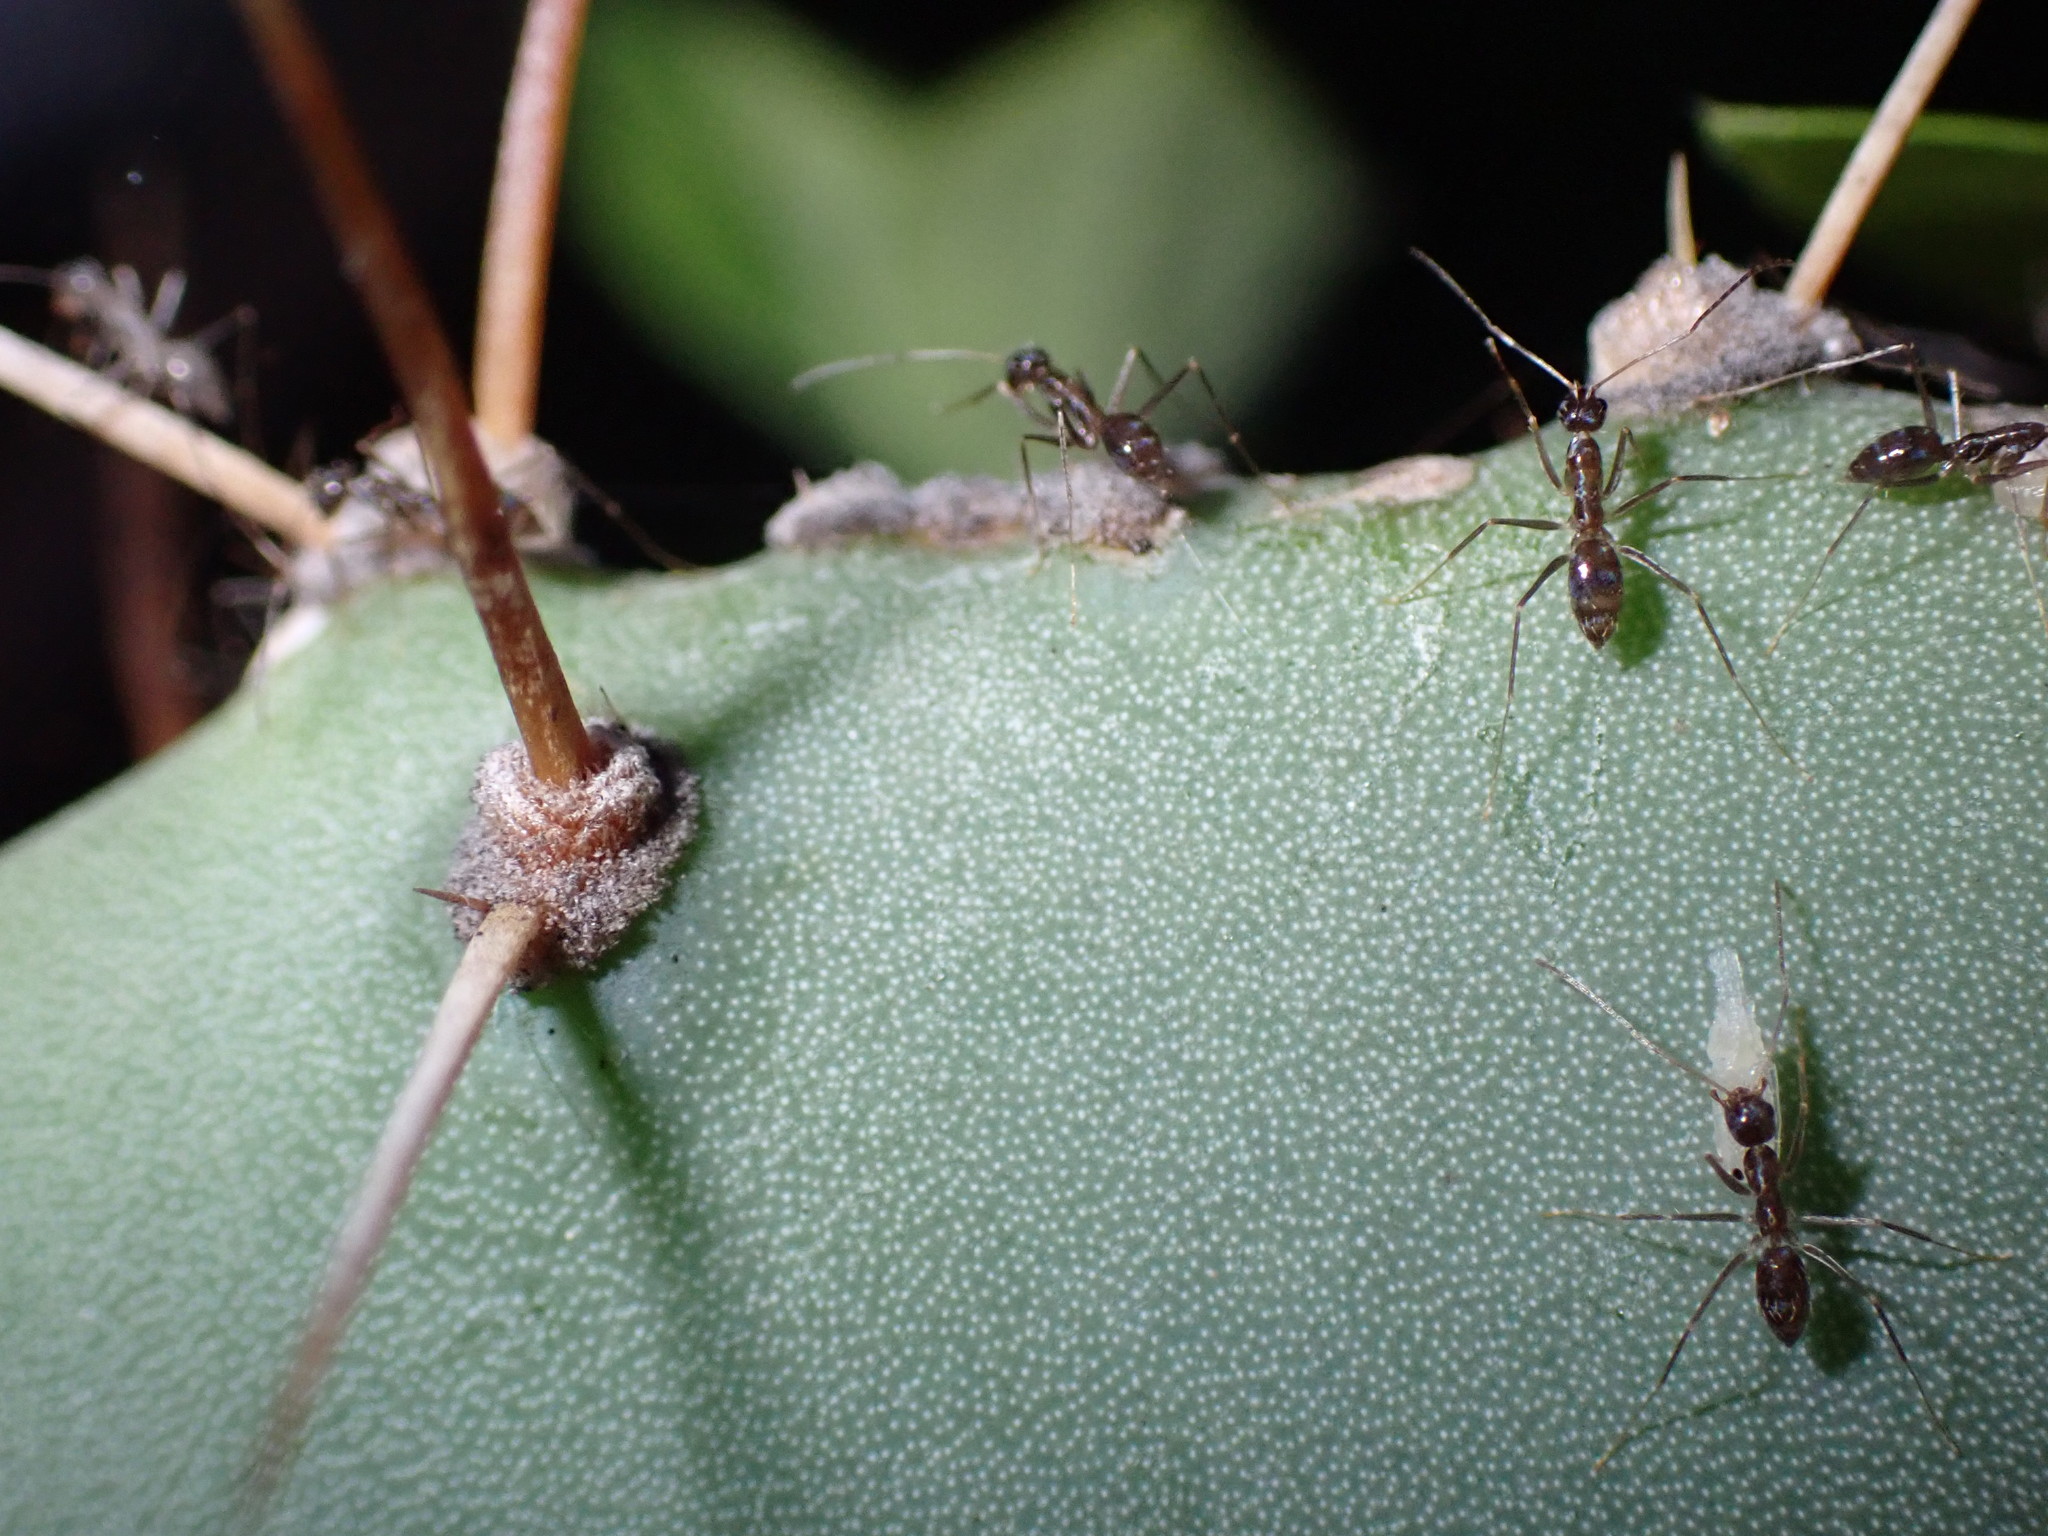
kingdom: Animalia
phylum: Arthropoda
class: Insecta
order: Hymenoptera
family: Formicidae
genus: Paratrechina
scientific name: Paratrechina longicornis
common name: Longhorned crazy ant
